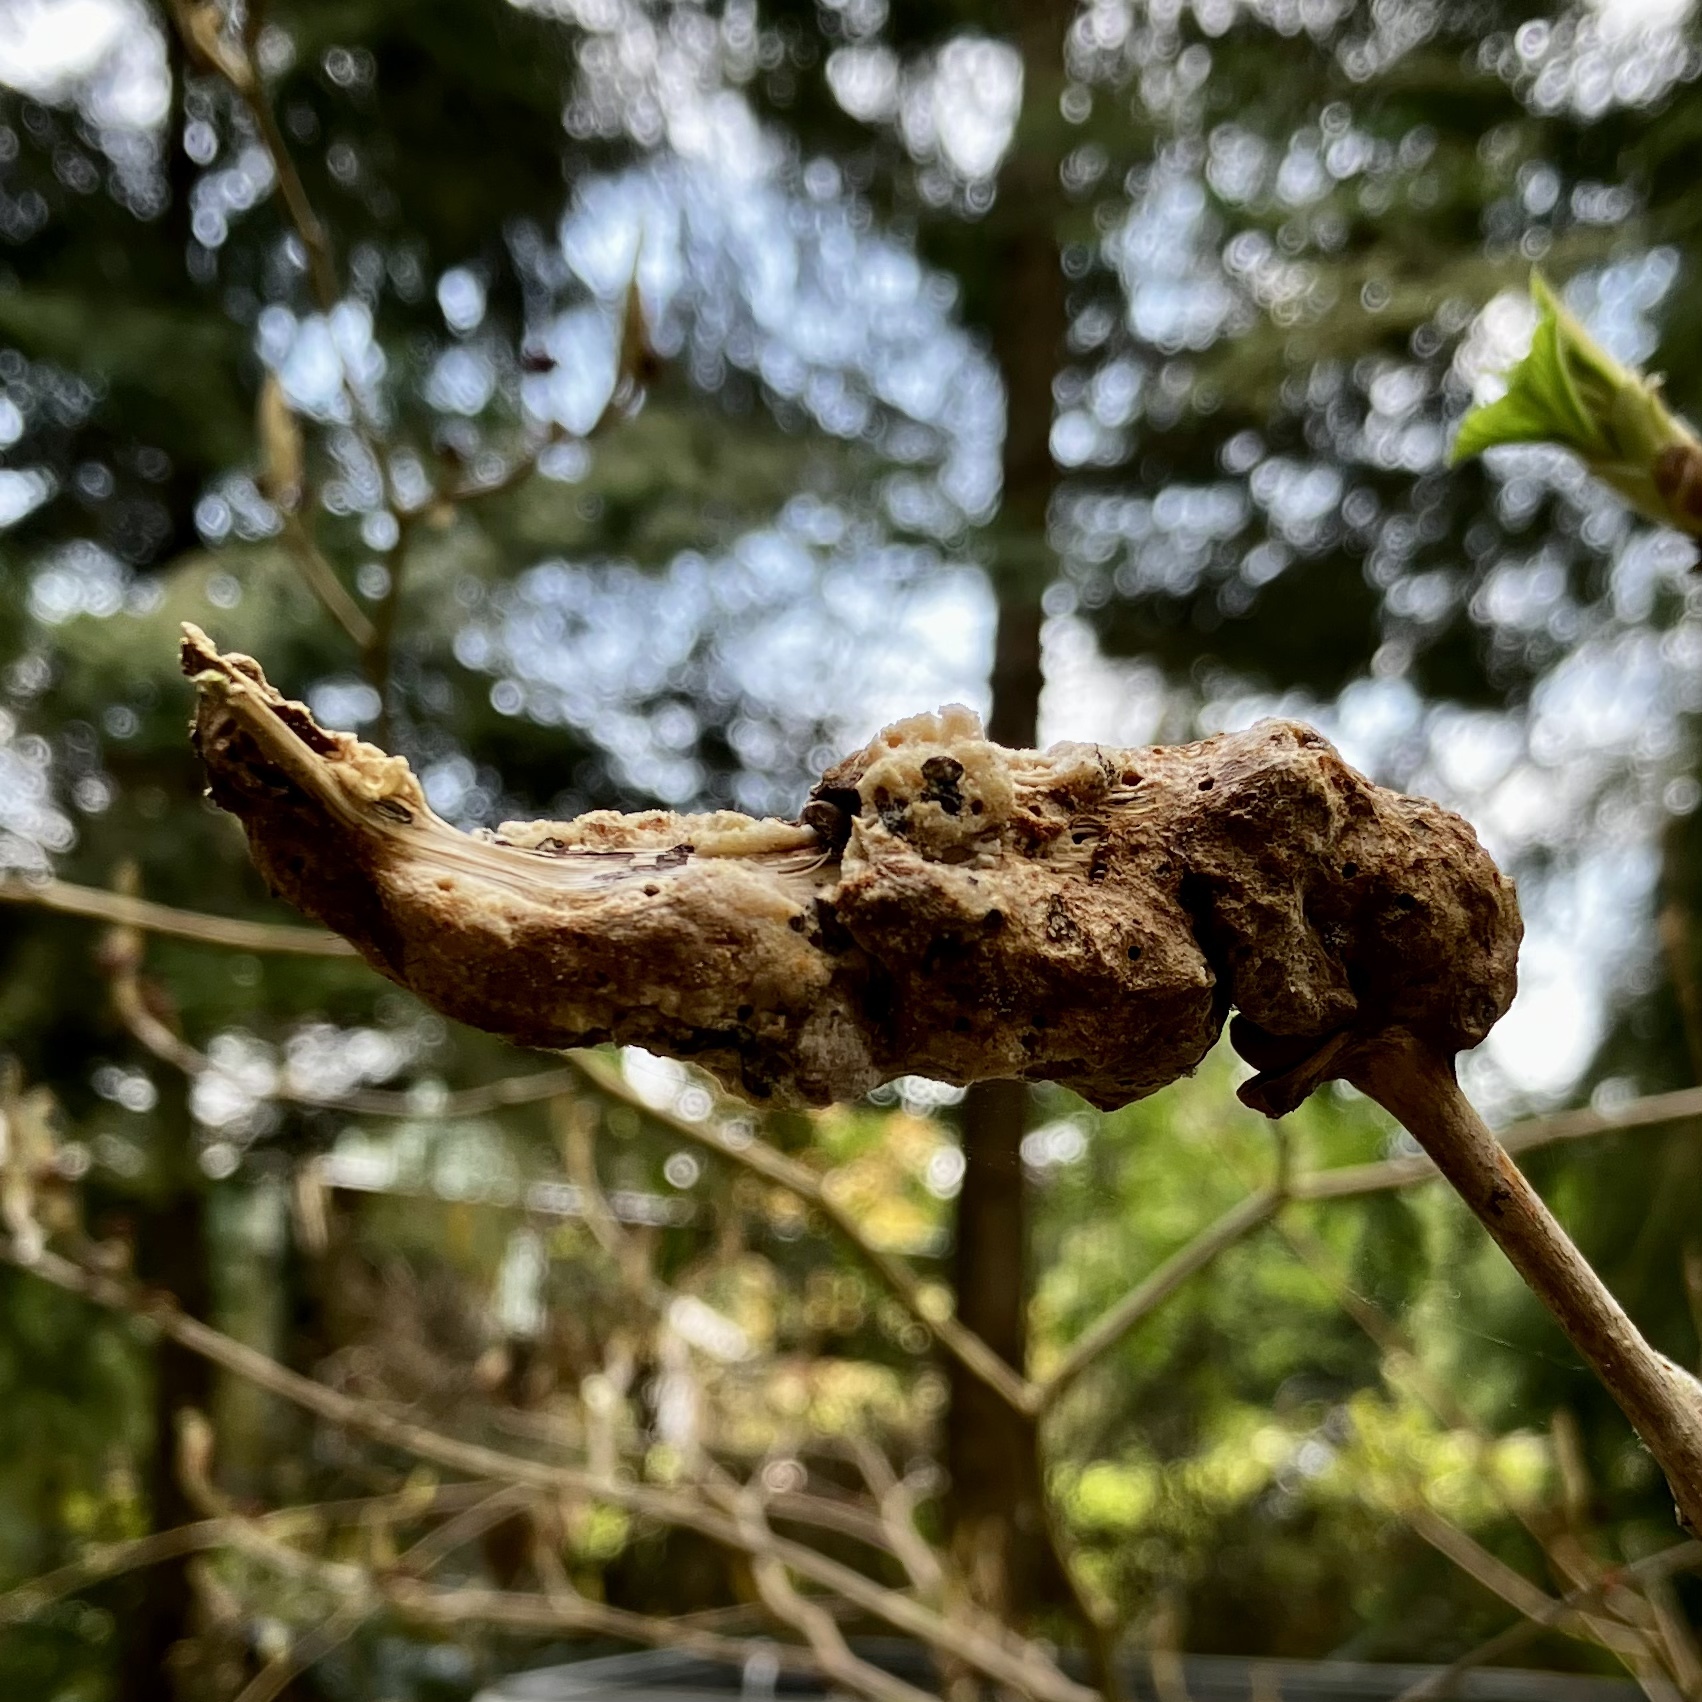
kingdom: Animalia
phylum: Arthropoda
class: Insecta
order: Hymenoptera
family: Cynipidae
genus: Diastrophus
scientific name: Diastrophus
